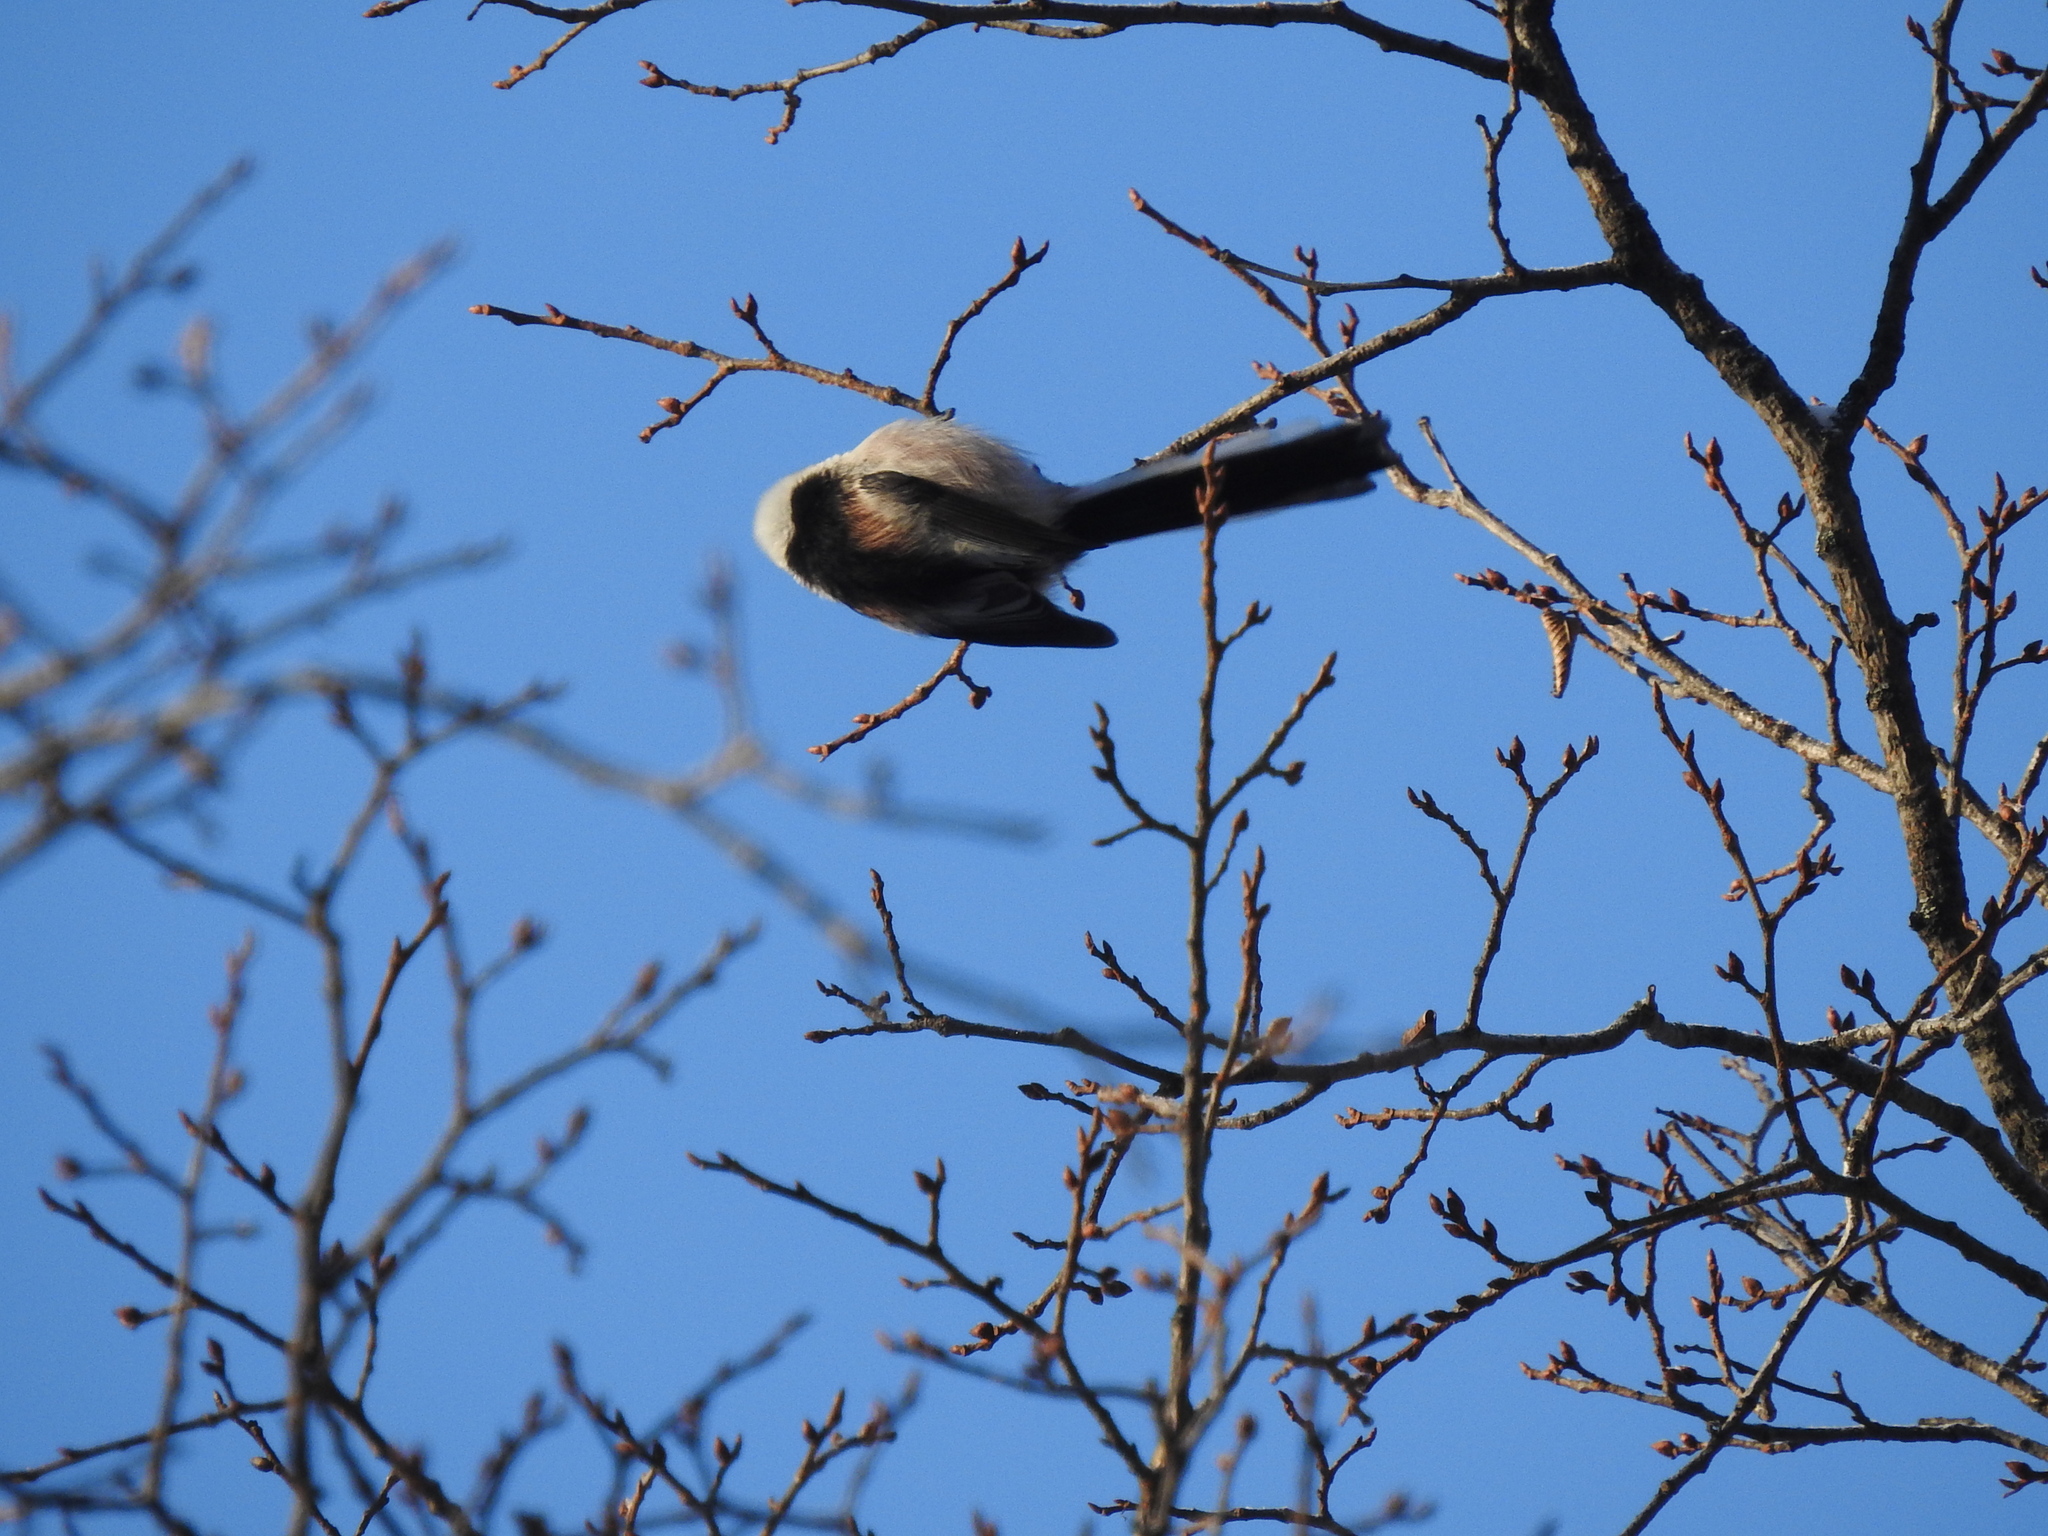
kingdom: Animalia
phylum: Chordata
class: Aves
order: Passeriformes
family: Aegithalidae
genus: Aegithalos
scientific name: Aegithalos caudatus
